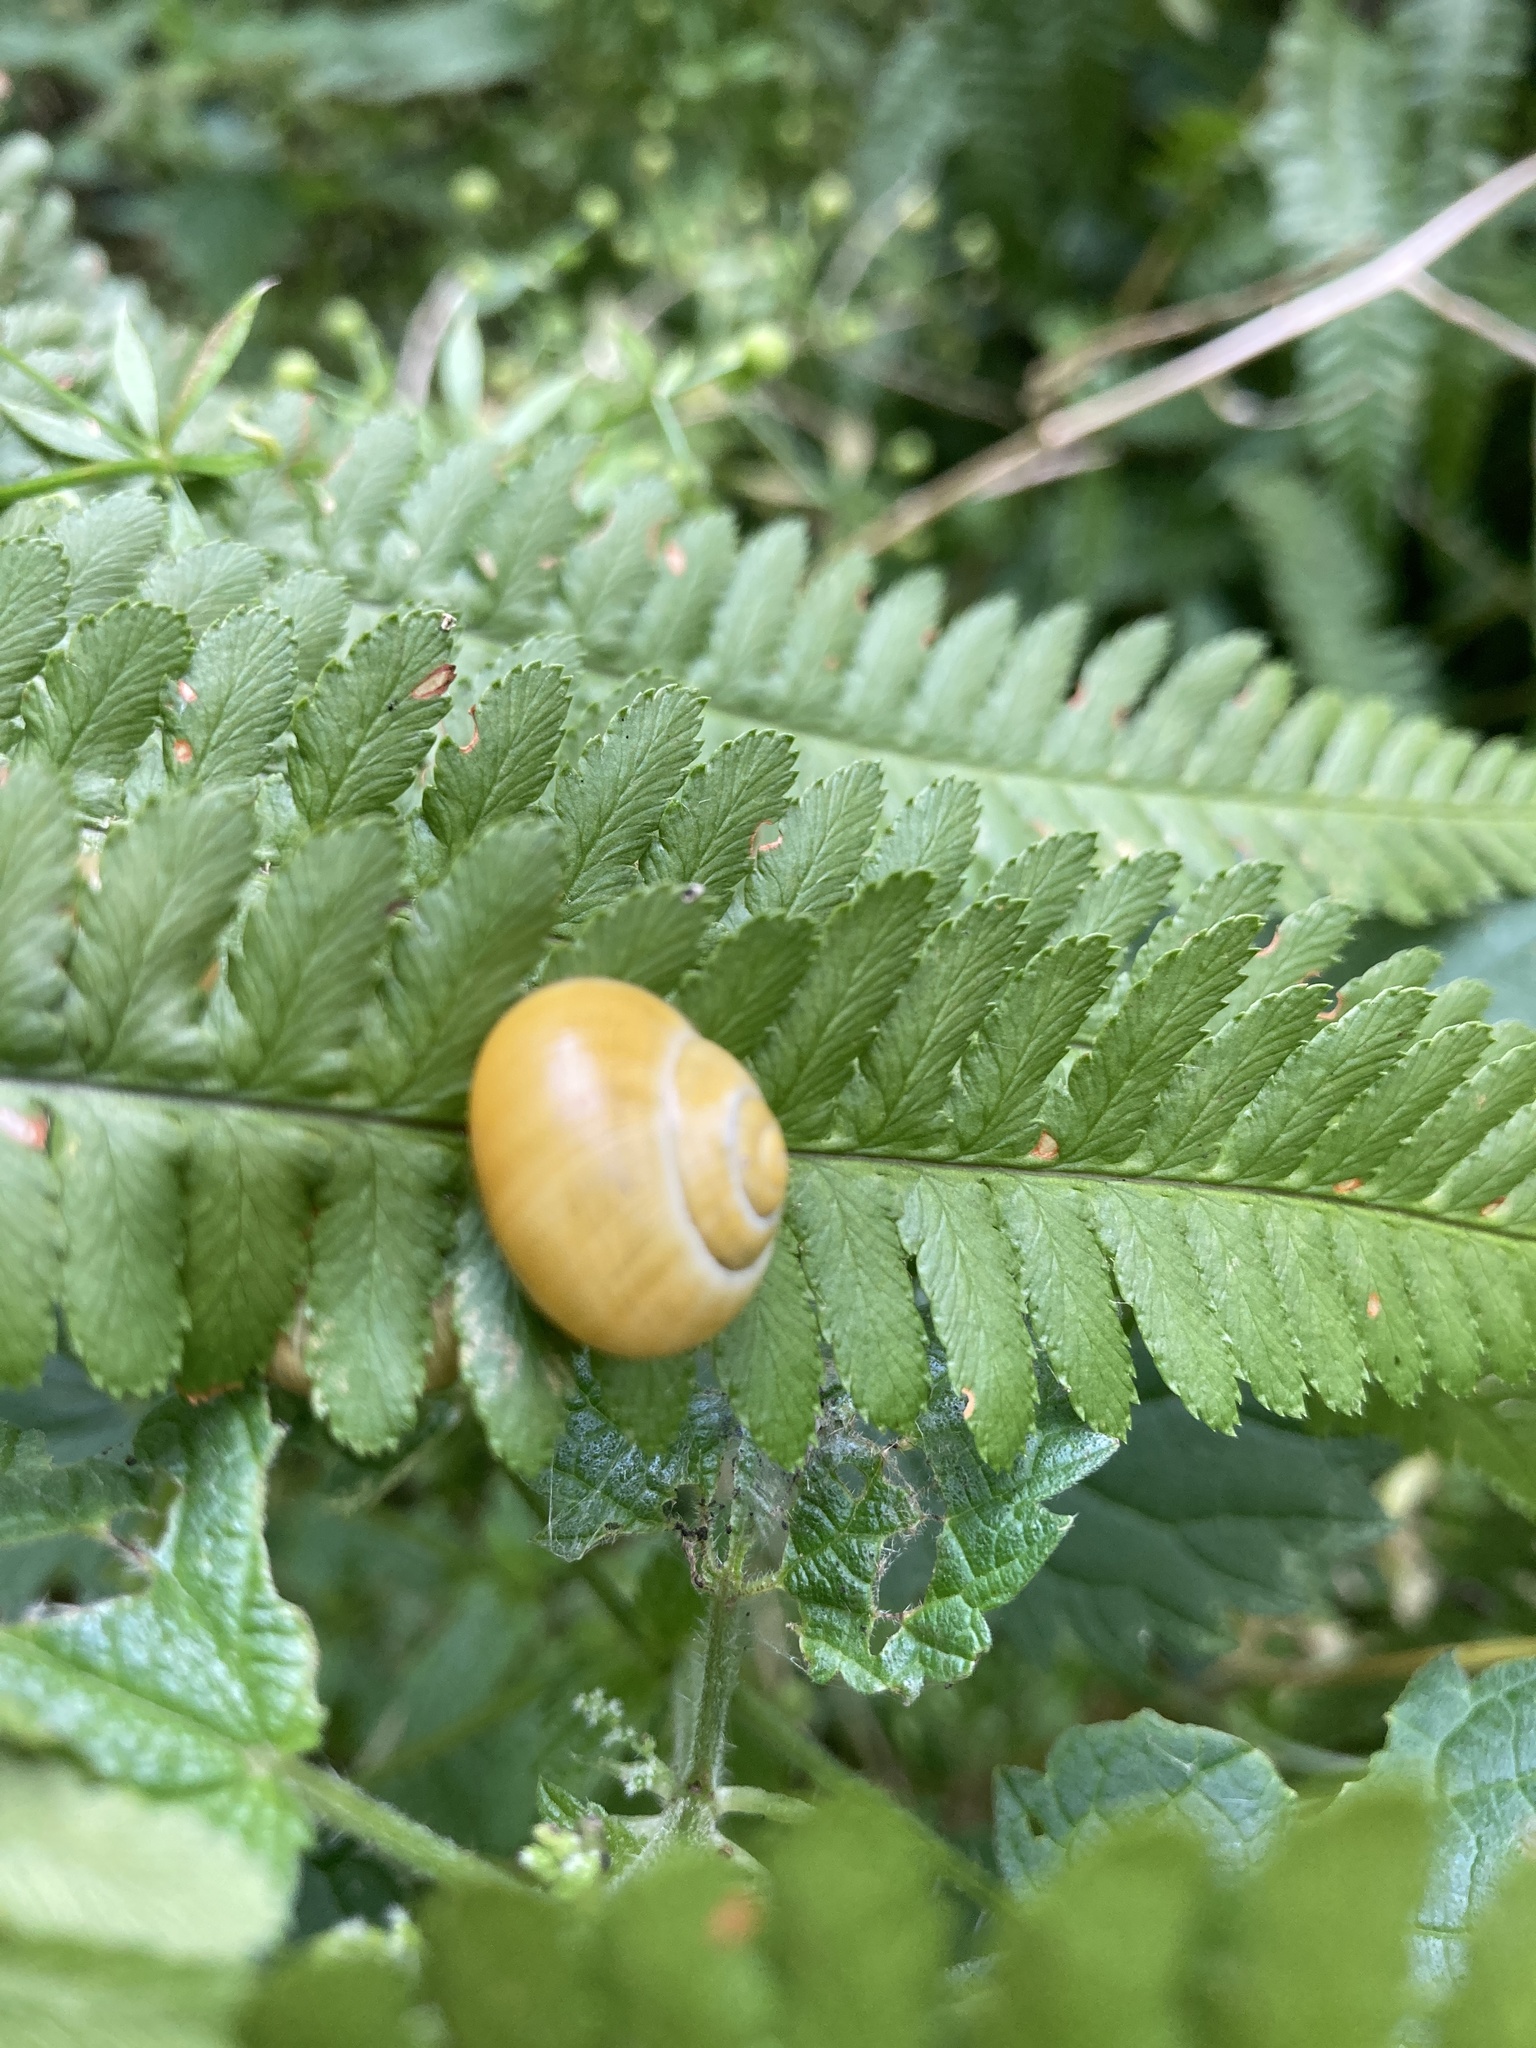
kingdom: Animalia
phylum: Mollusca
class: Gastropoda
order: Stylommatophora
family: Helicidae
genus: Cepaea
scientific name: Cepaea
